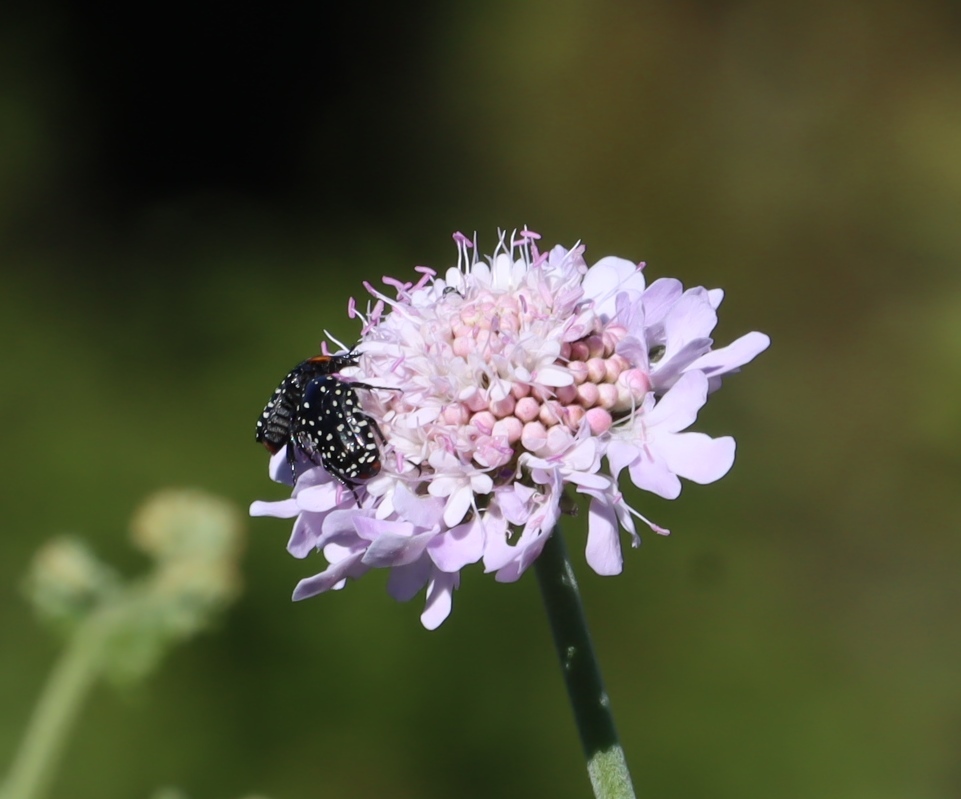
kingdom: Animalia
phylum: Arthropoda
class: Insecta
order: Coleoptera
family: Scarabaeidae
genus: Oxythyrea
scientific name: Oxythyrea
